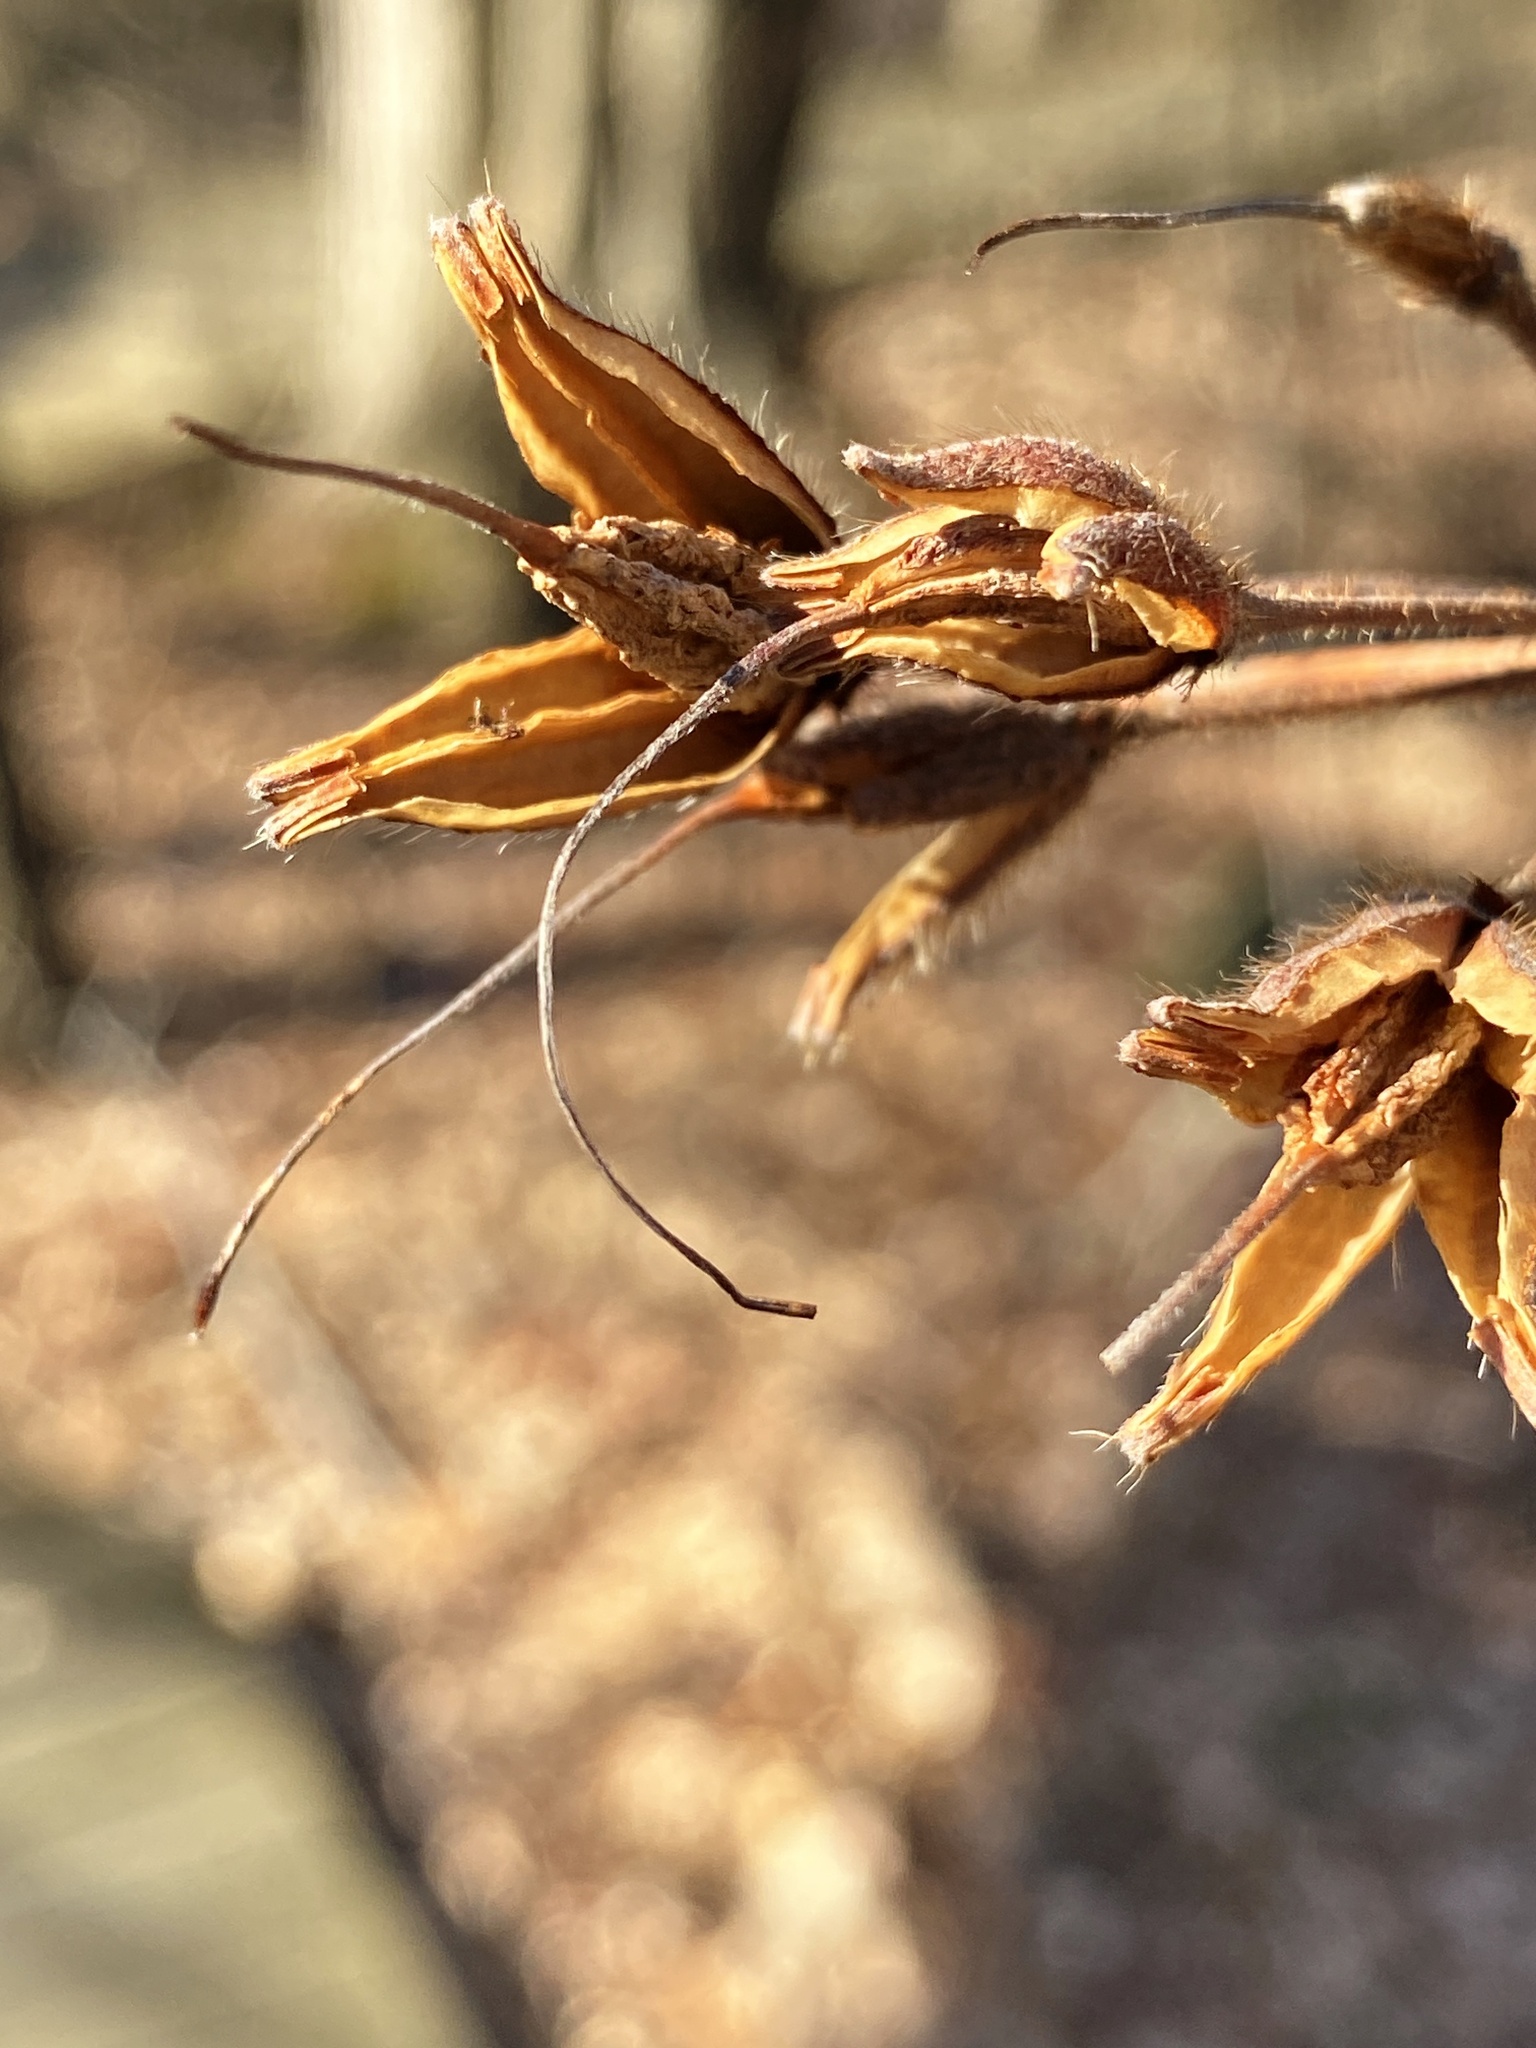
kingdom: Plantae
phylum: Tracheophyta
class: Magnoliopsida
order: Ericales
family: Ericaceae
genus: Rhododendron
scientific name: Rhododendron viscosum
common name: Clammy azalea
